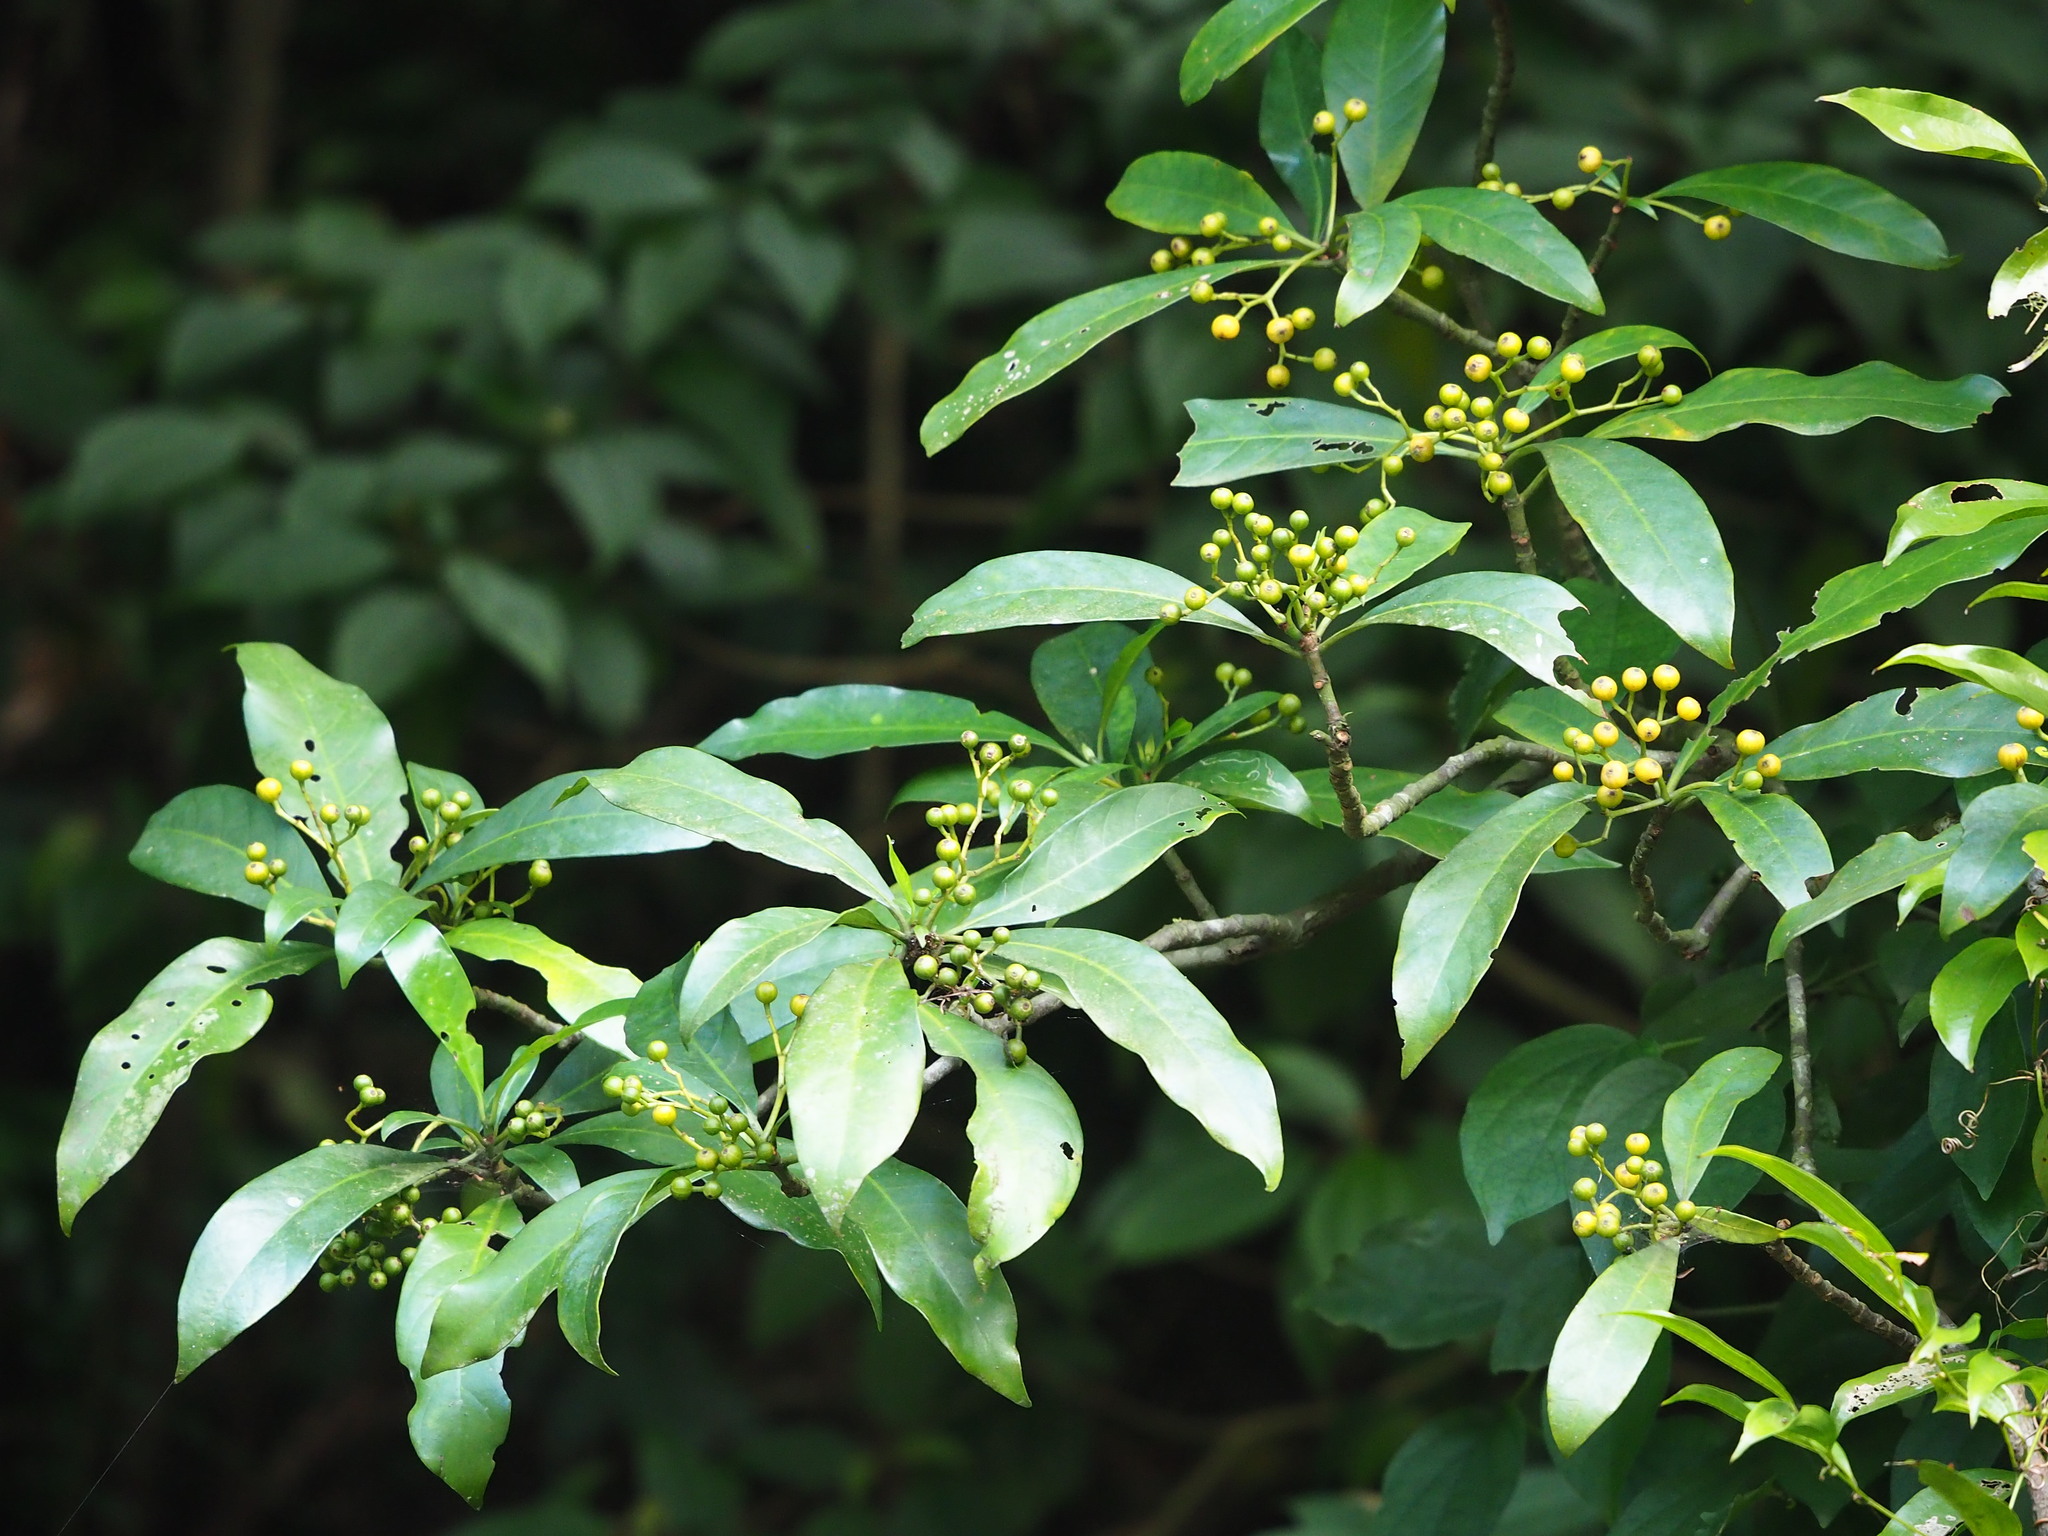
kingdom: Plantae
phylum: Tracheophyta
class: Magnoliopsida
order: Gentianales
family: Rubiaceae
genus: Psychotria
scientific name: Psychotria asiatica
